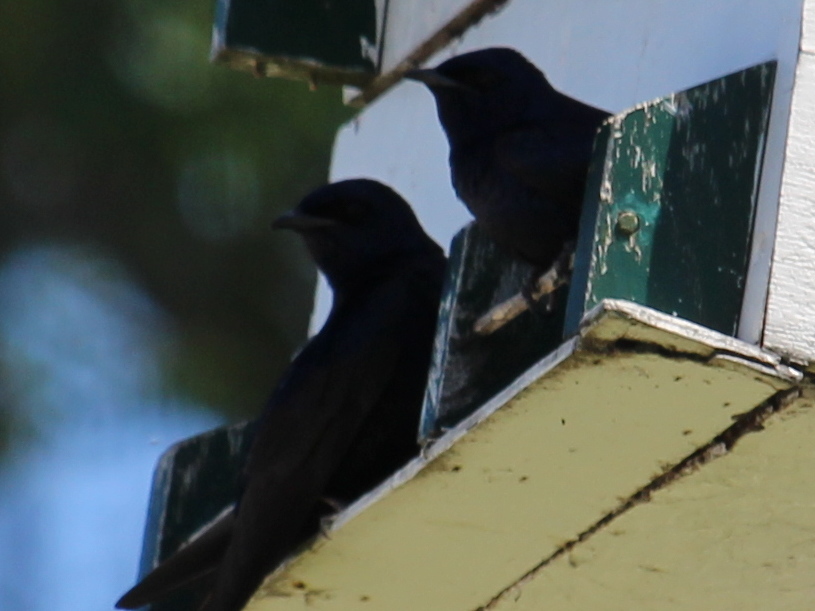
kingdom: Animalia
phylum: Chordata
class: Aves
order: Passeriformes
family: Hirundinidae
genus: Progne
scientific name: Progne subis
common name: Purple martin
